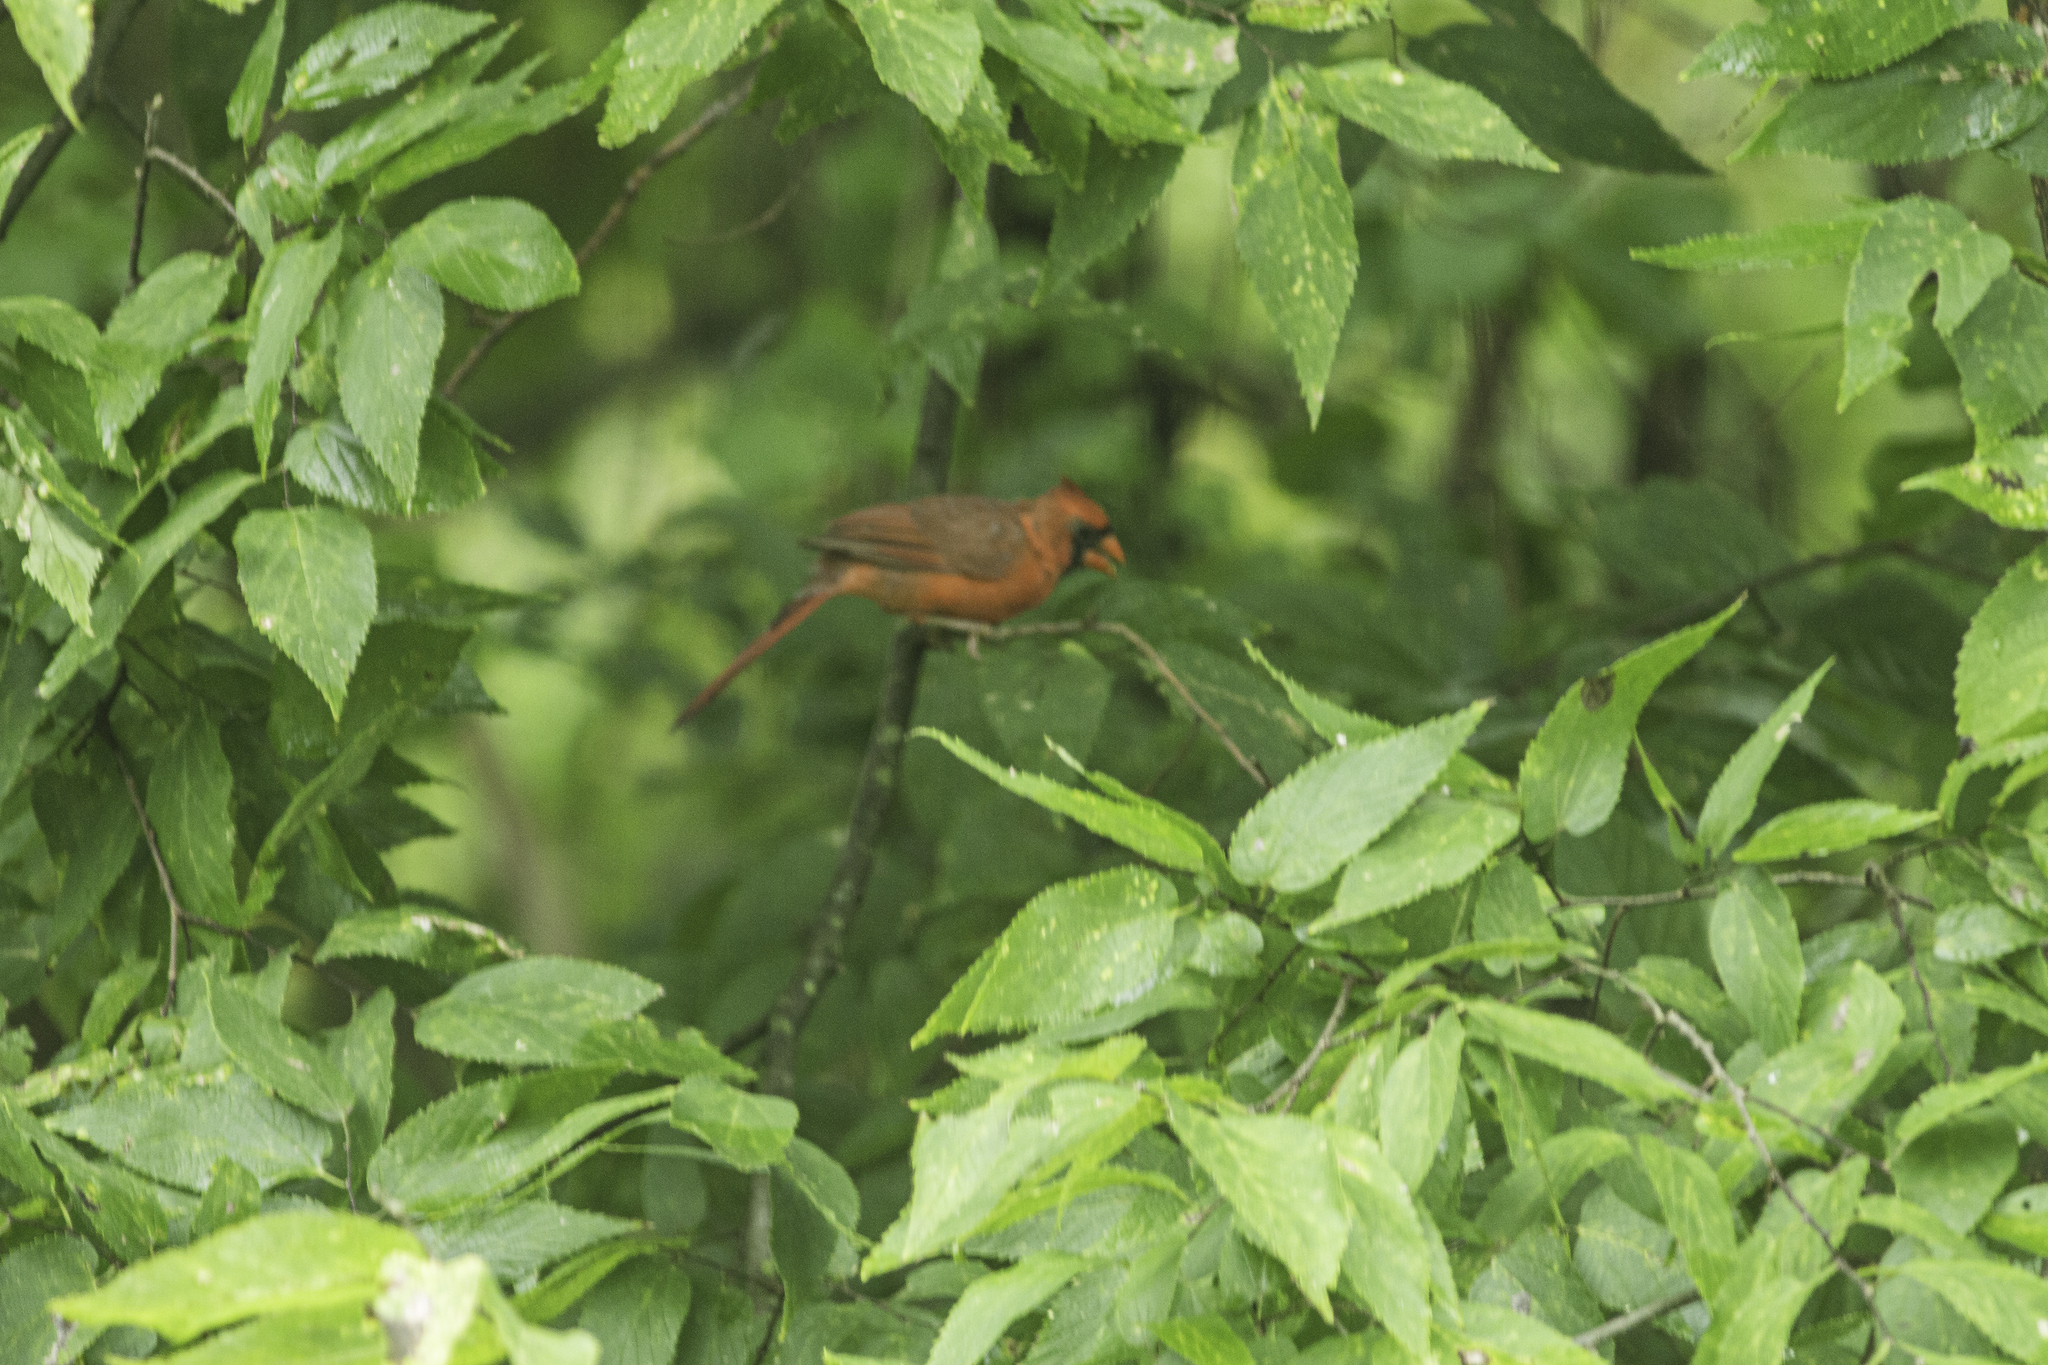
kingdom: Animalia
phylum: Chordata
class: Aves
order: Passeriformes
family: Cardinalidae
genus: Cardinalis
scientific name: Cardinalis cardinalis
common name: Northern cardinal
